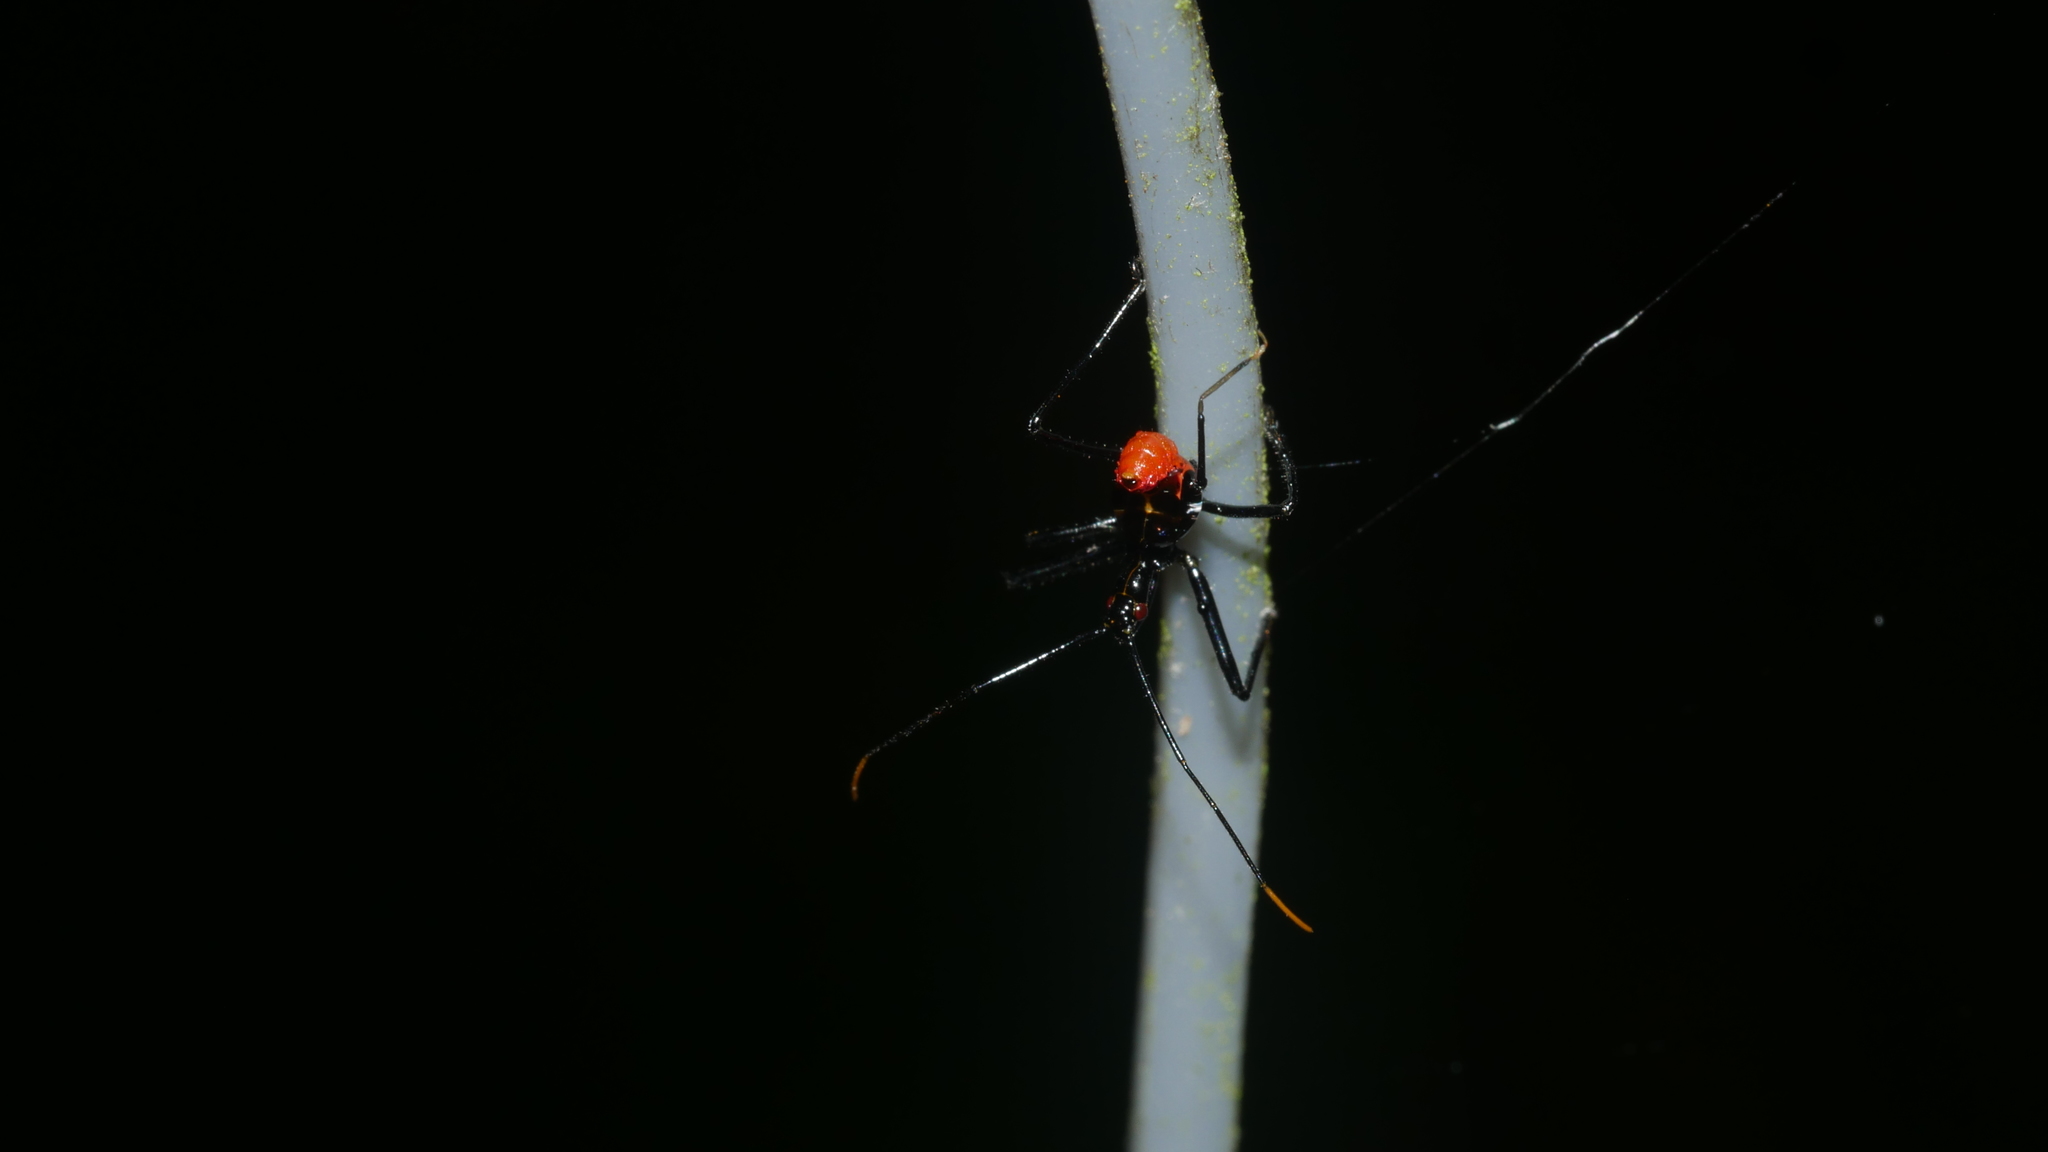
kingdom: Animalia
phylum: Arthropoda
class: Insecta
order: Hemiptera
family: Reduviidae
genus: Arilus
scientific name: Arilus cristatus
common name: North american wheel bug
